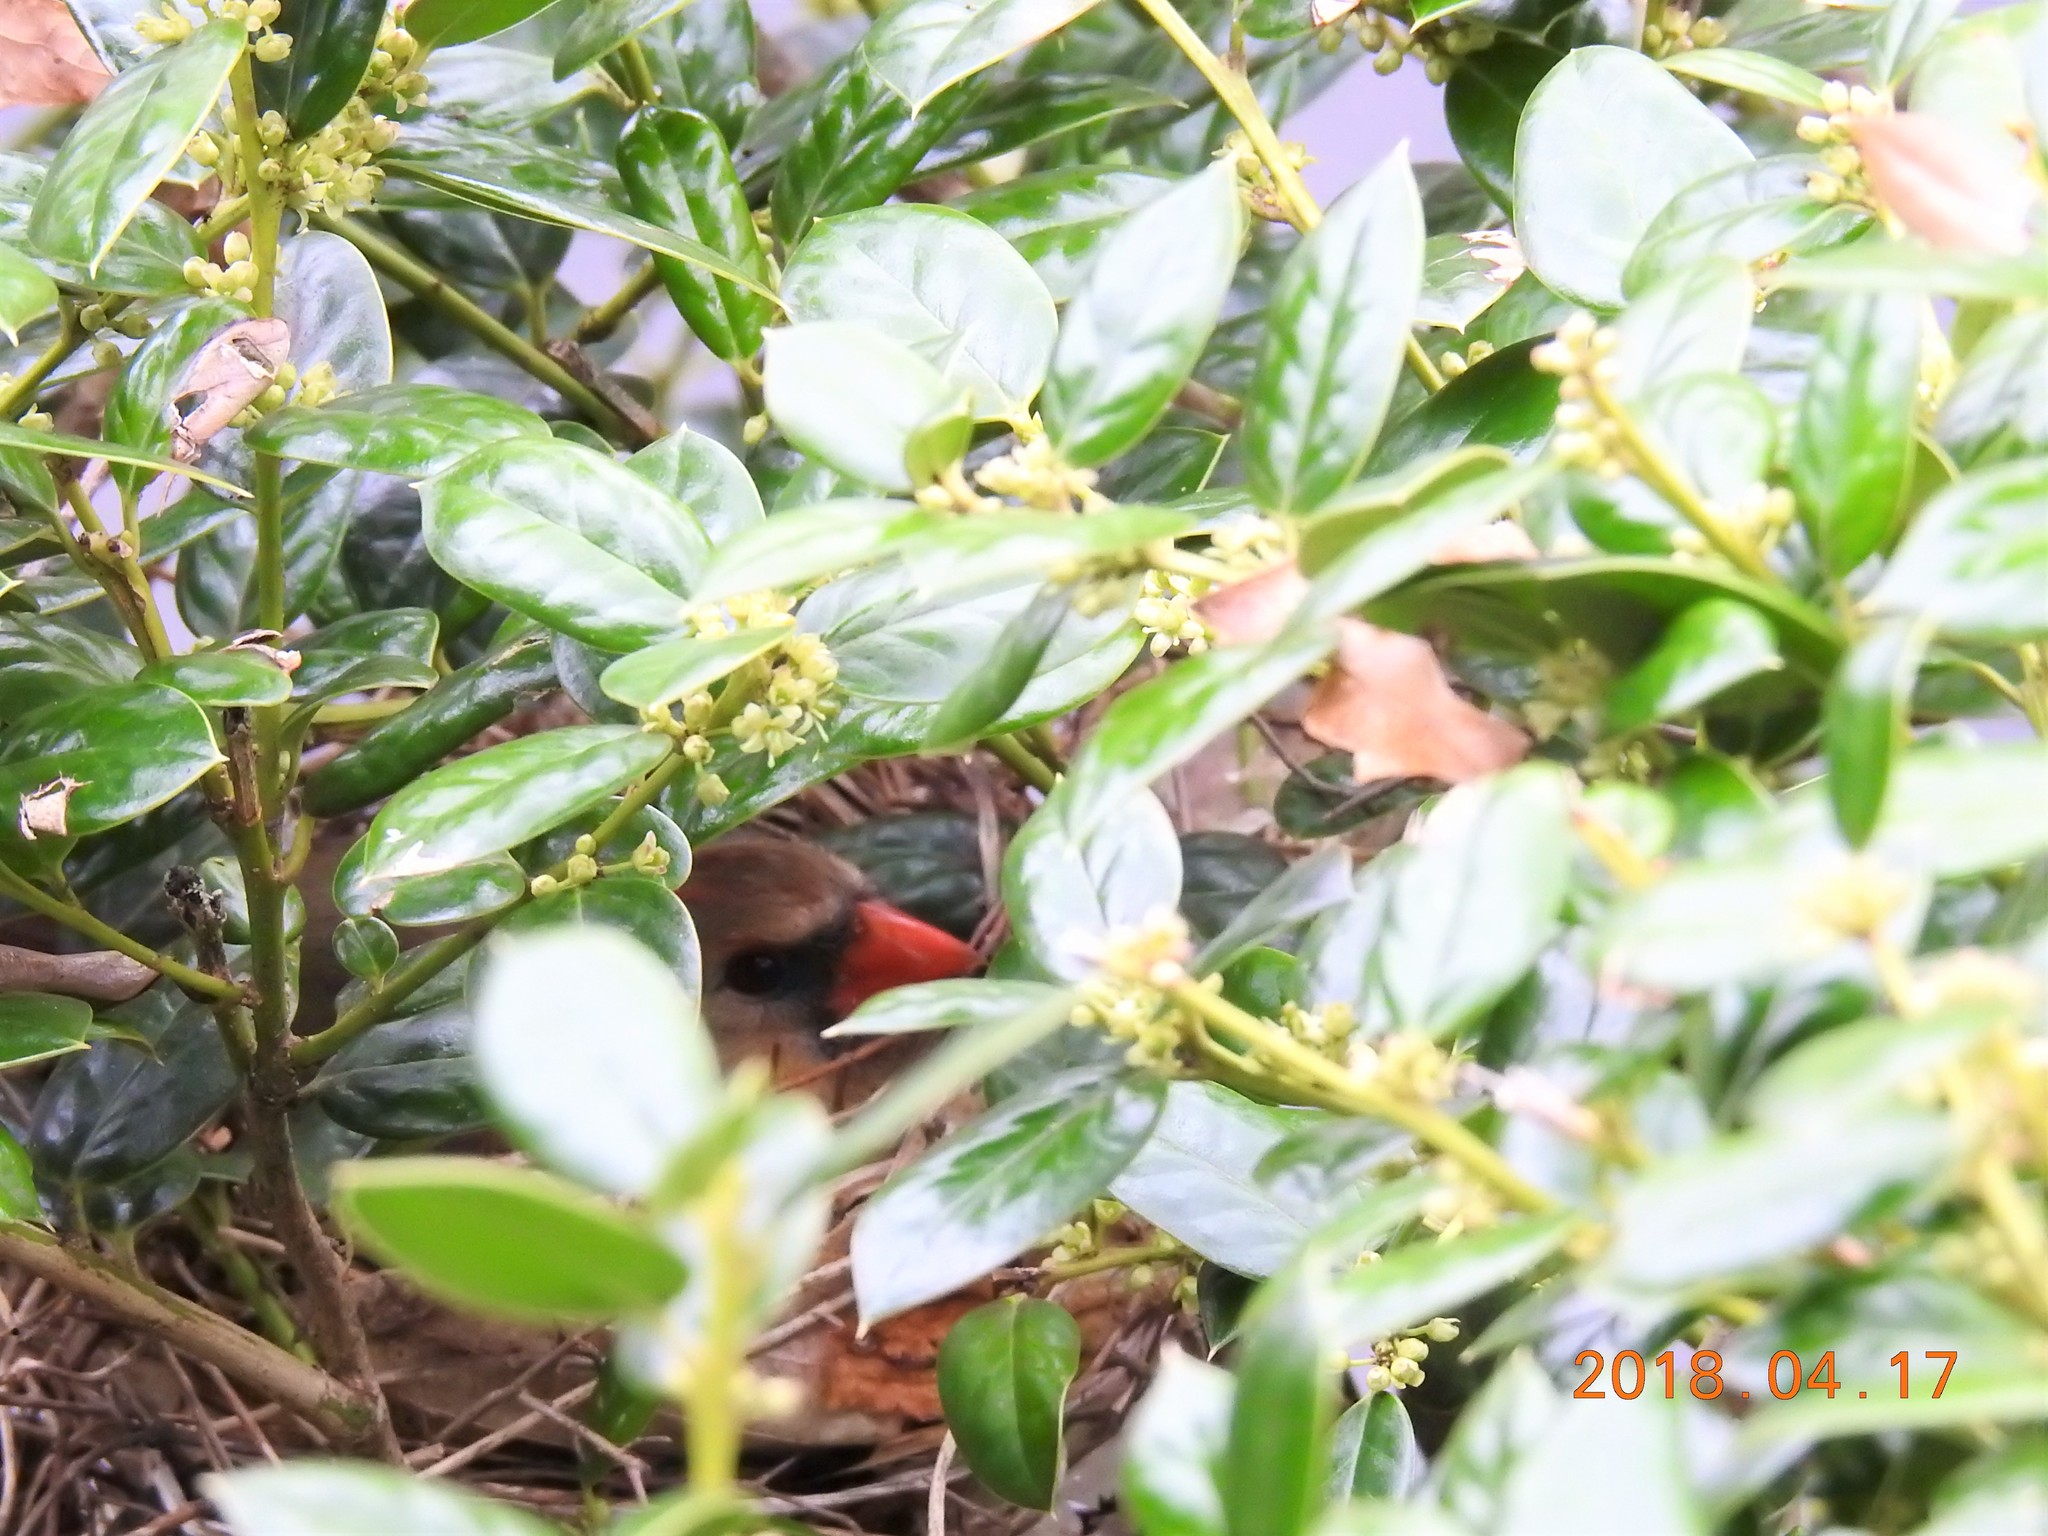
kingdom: Animalia
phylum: Chordata
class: Aves
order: Passeriformes
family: Cardinalidae
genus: Cardinalis
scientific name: Cardinalis cardinalis
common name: Northern cardinal
